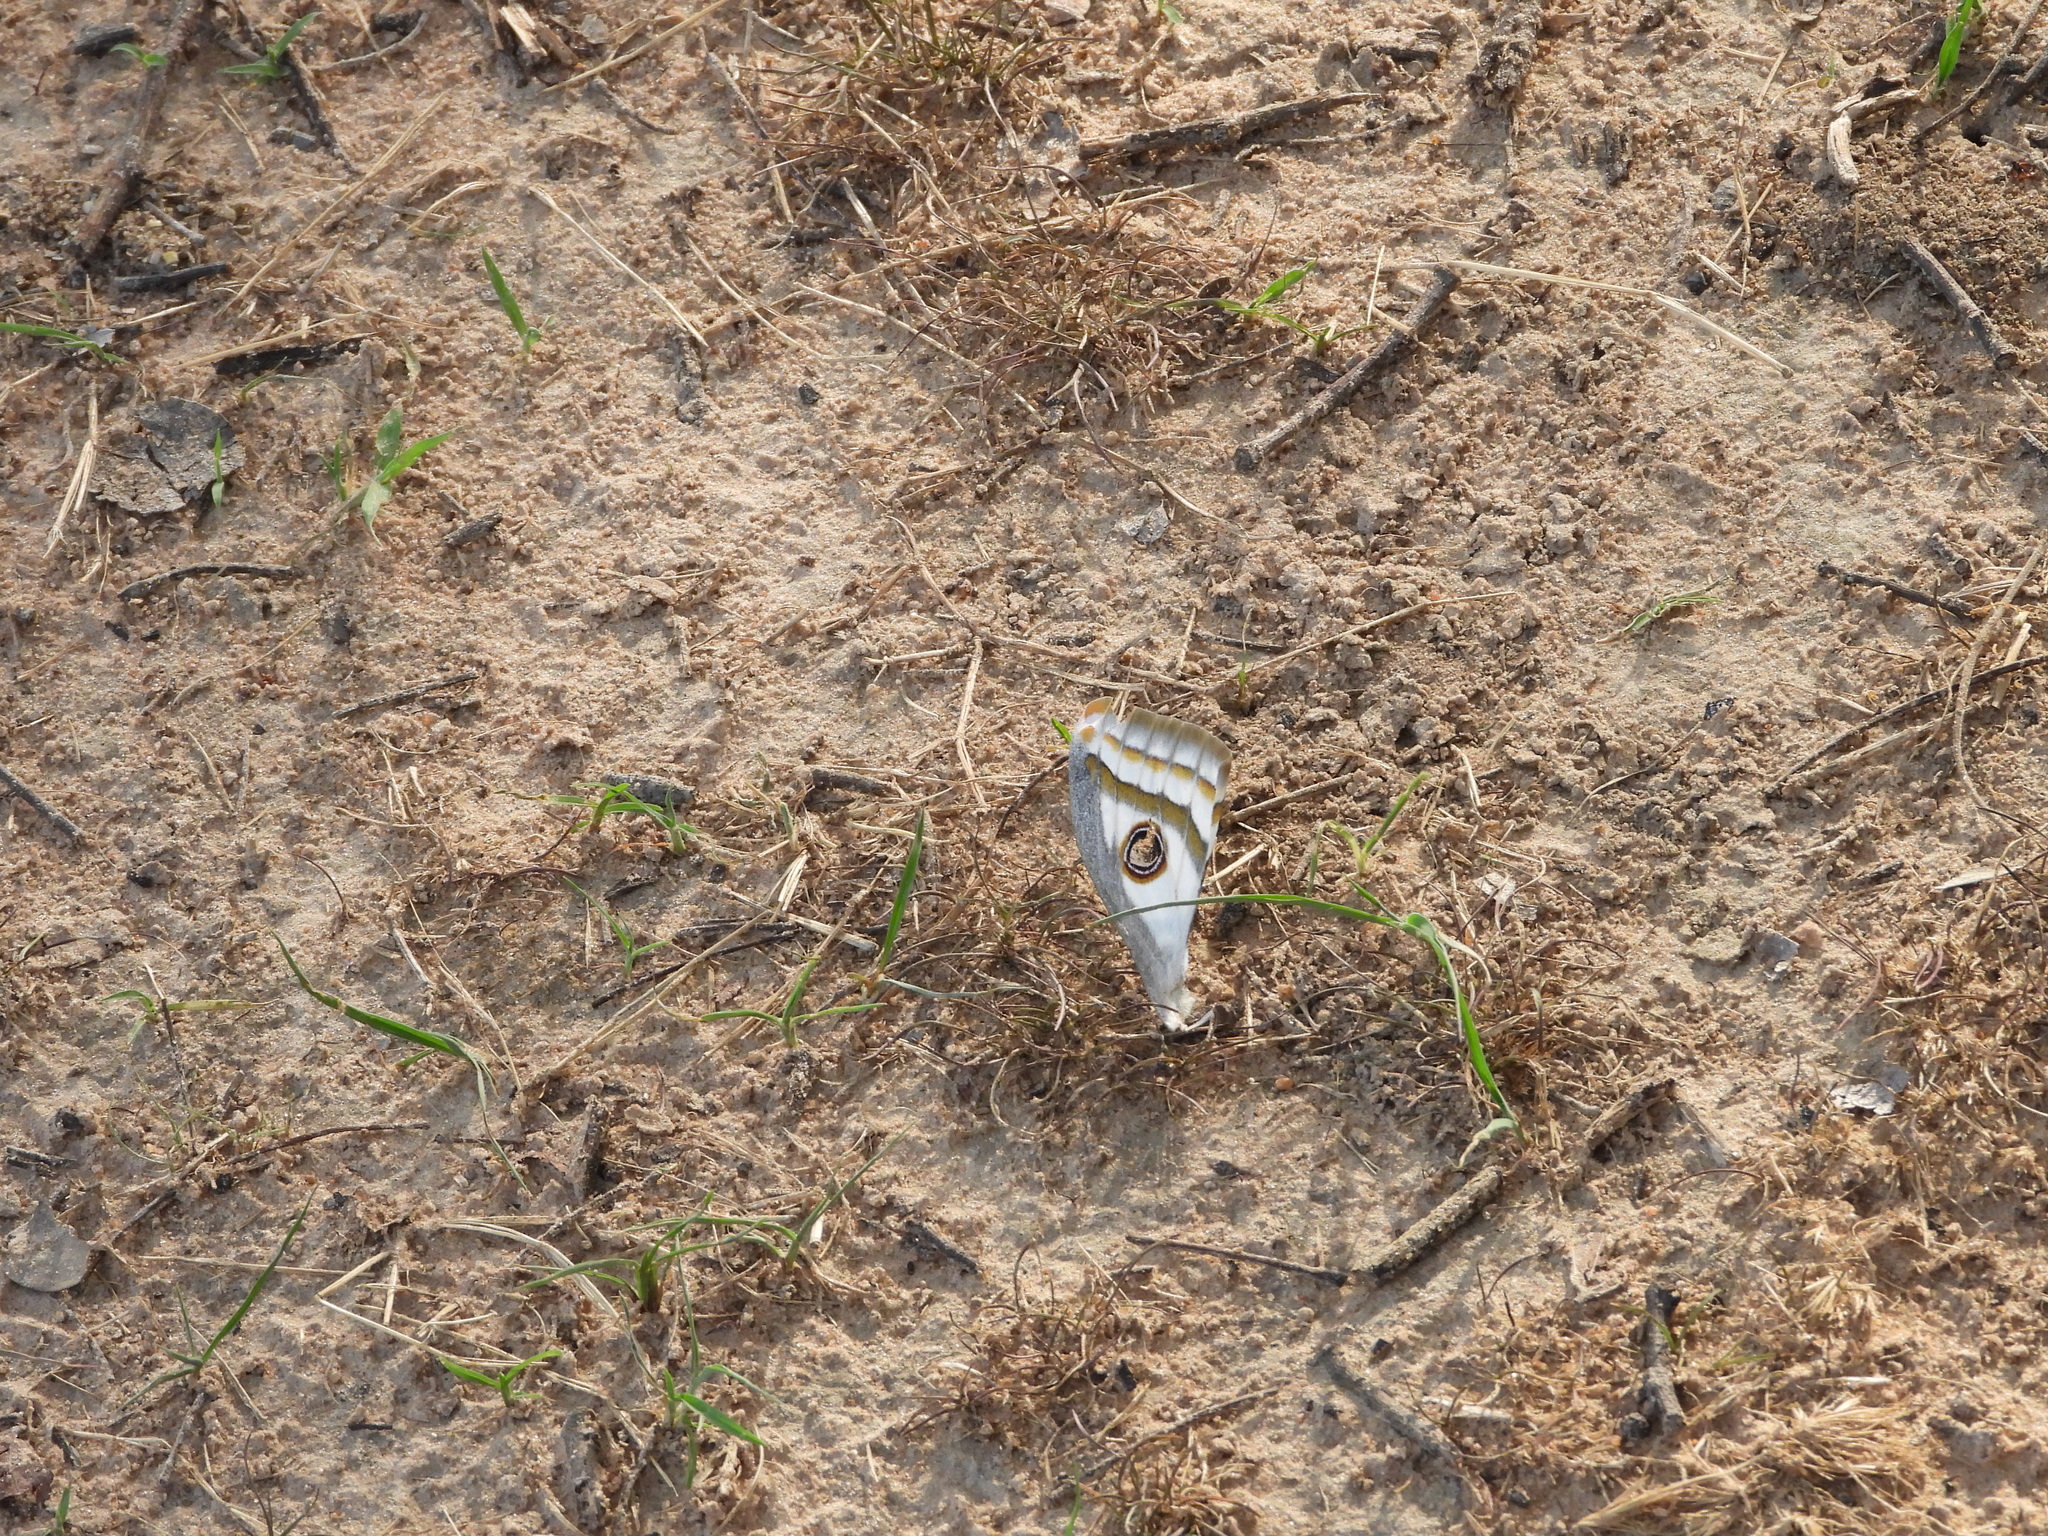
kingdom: Animalia
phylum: Arthropoda
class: Insecta
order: Lepidoptera
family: Saturniidae
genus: Heniocha
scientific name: Heniocha dyops
